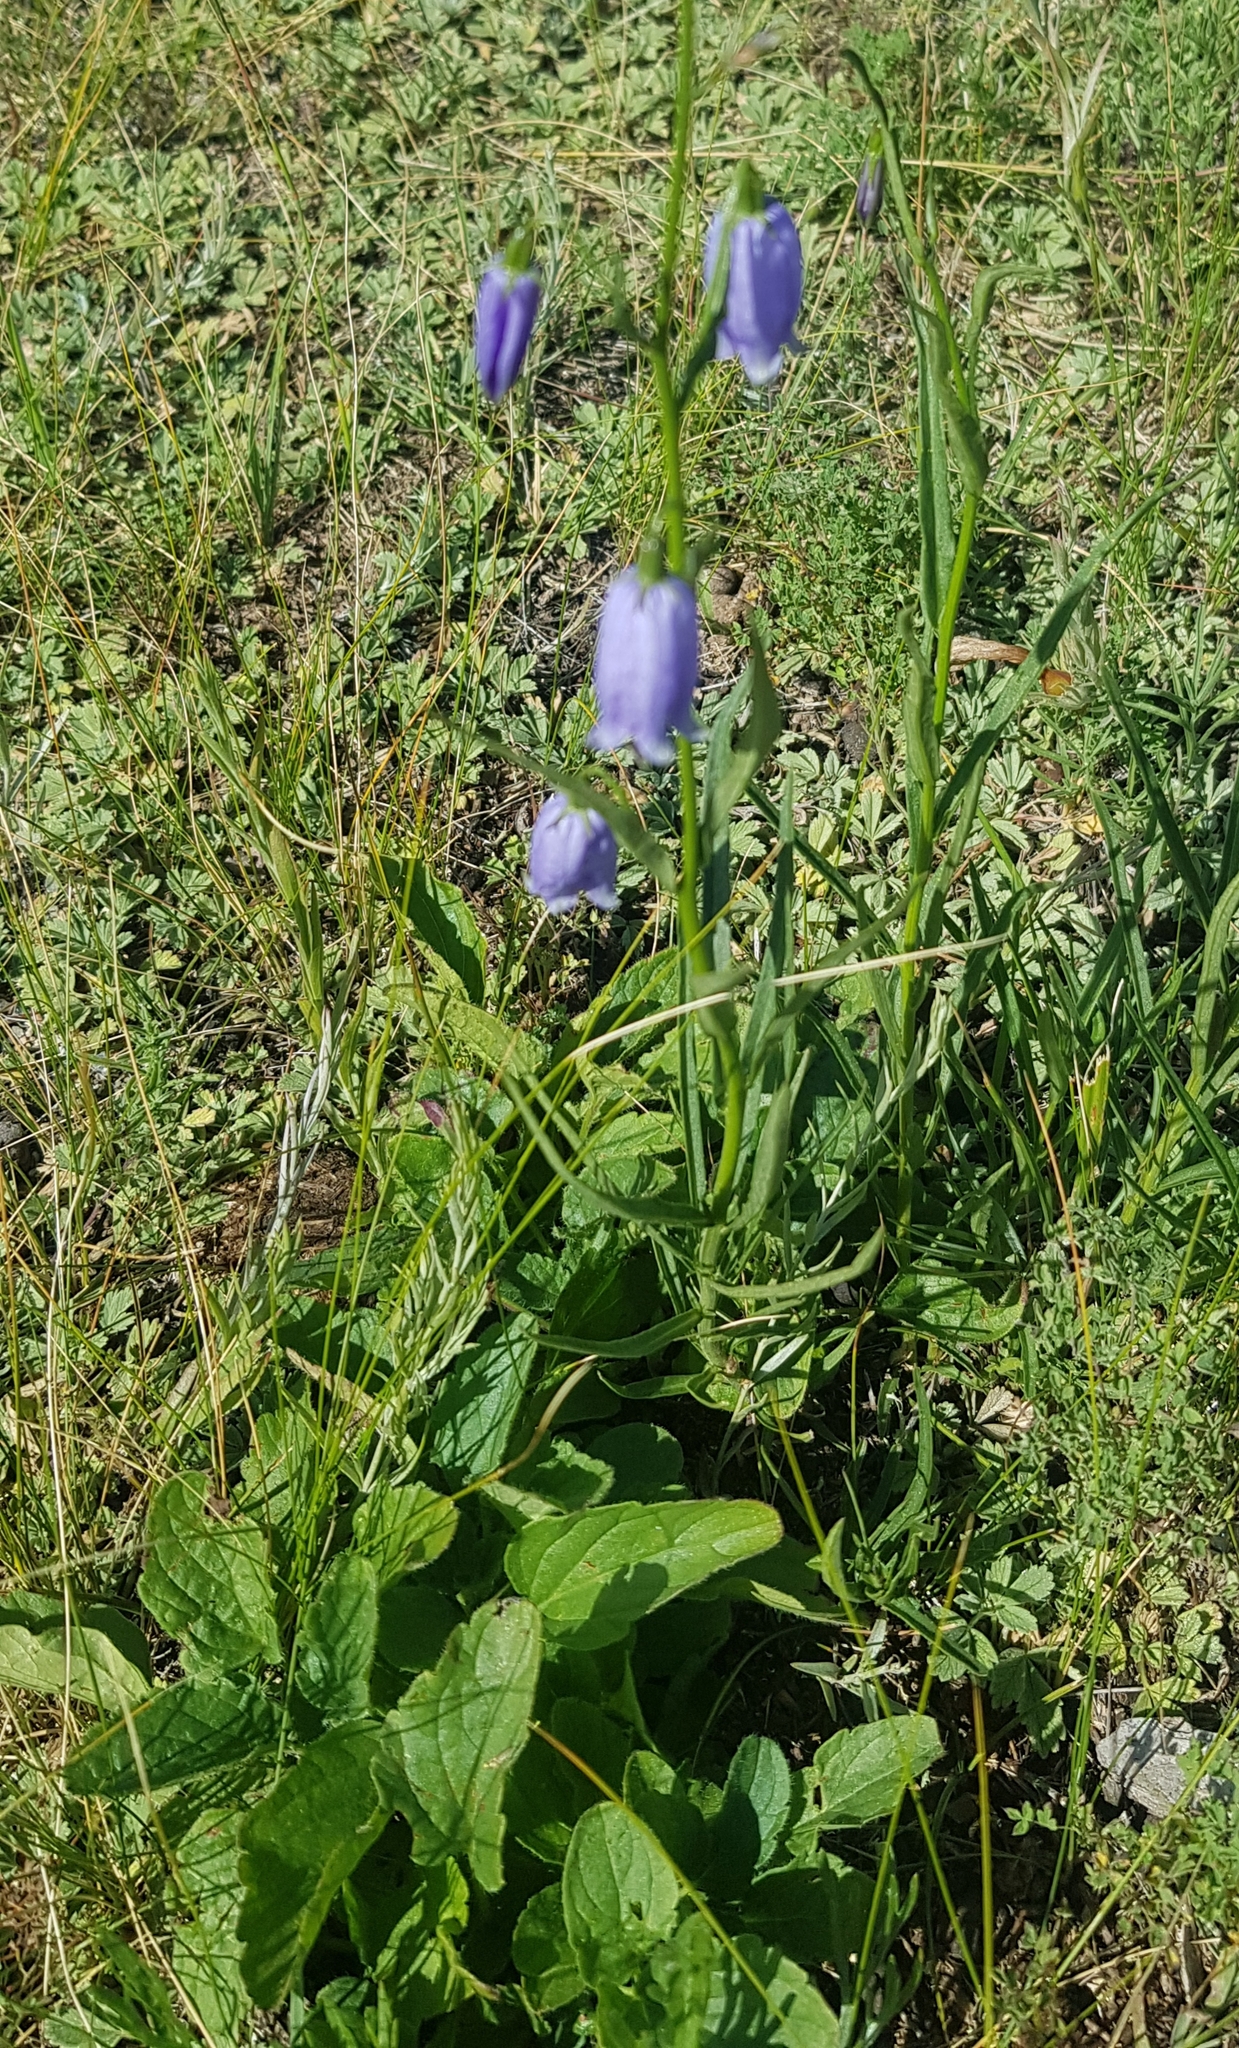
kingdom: Plantae
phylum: Tracheophyta
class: Magnoliopsida
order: Asterales
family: Campanulaceae
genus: Adenophora
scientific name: Adenophora stenanthina
